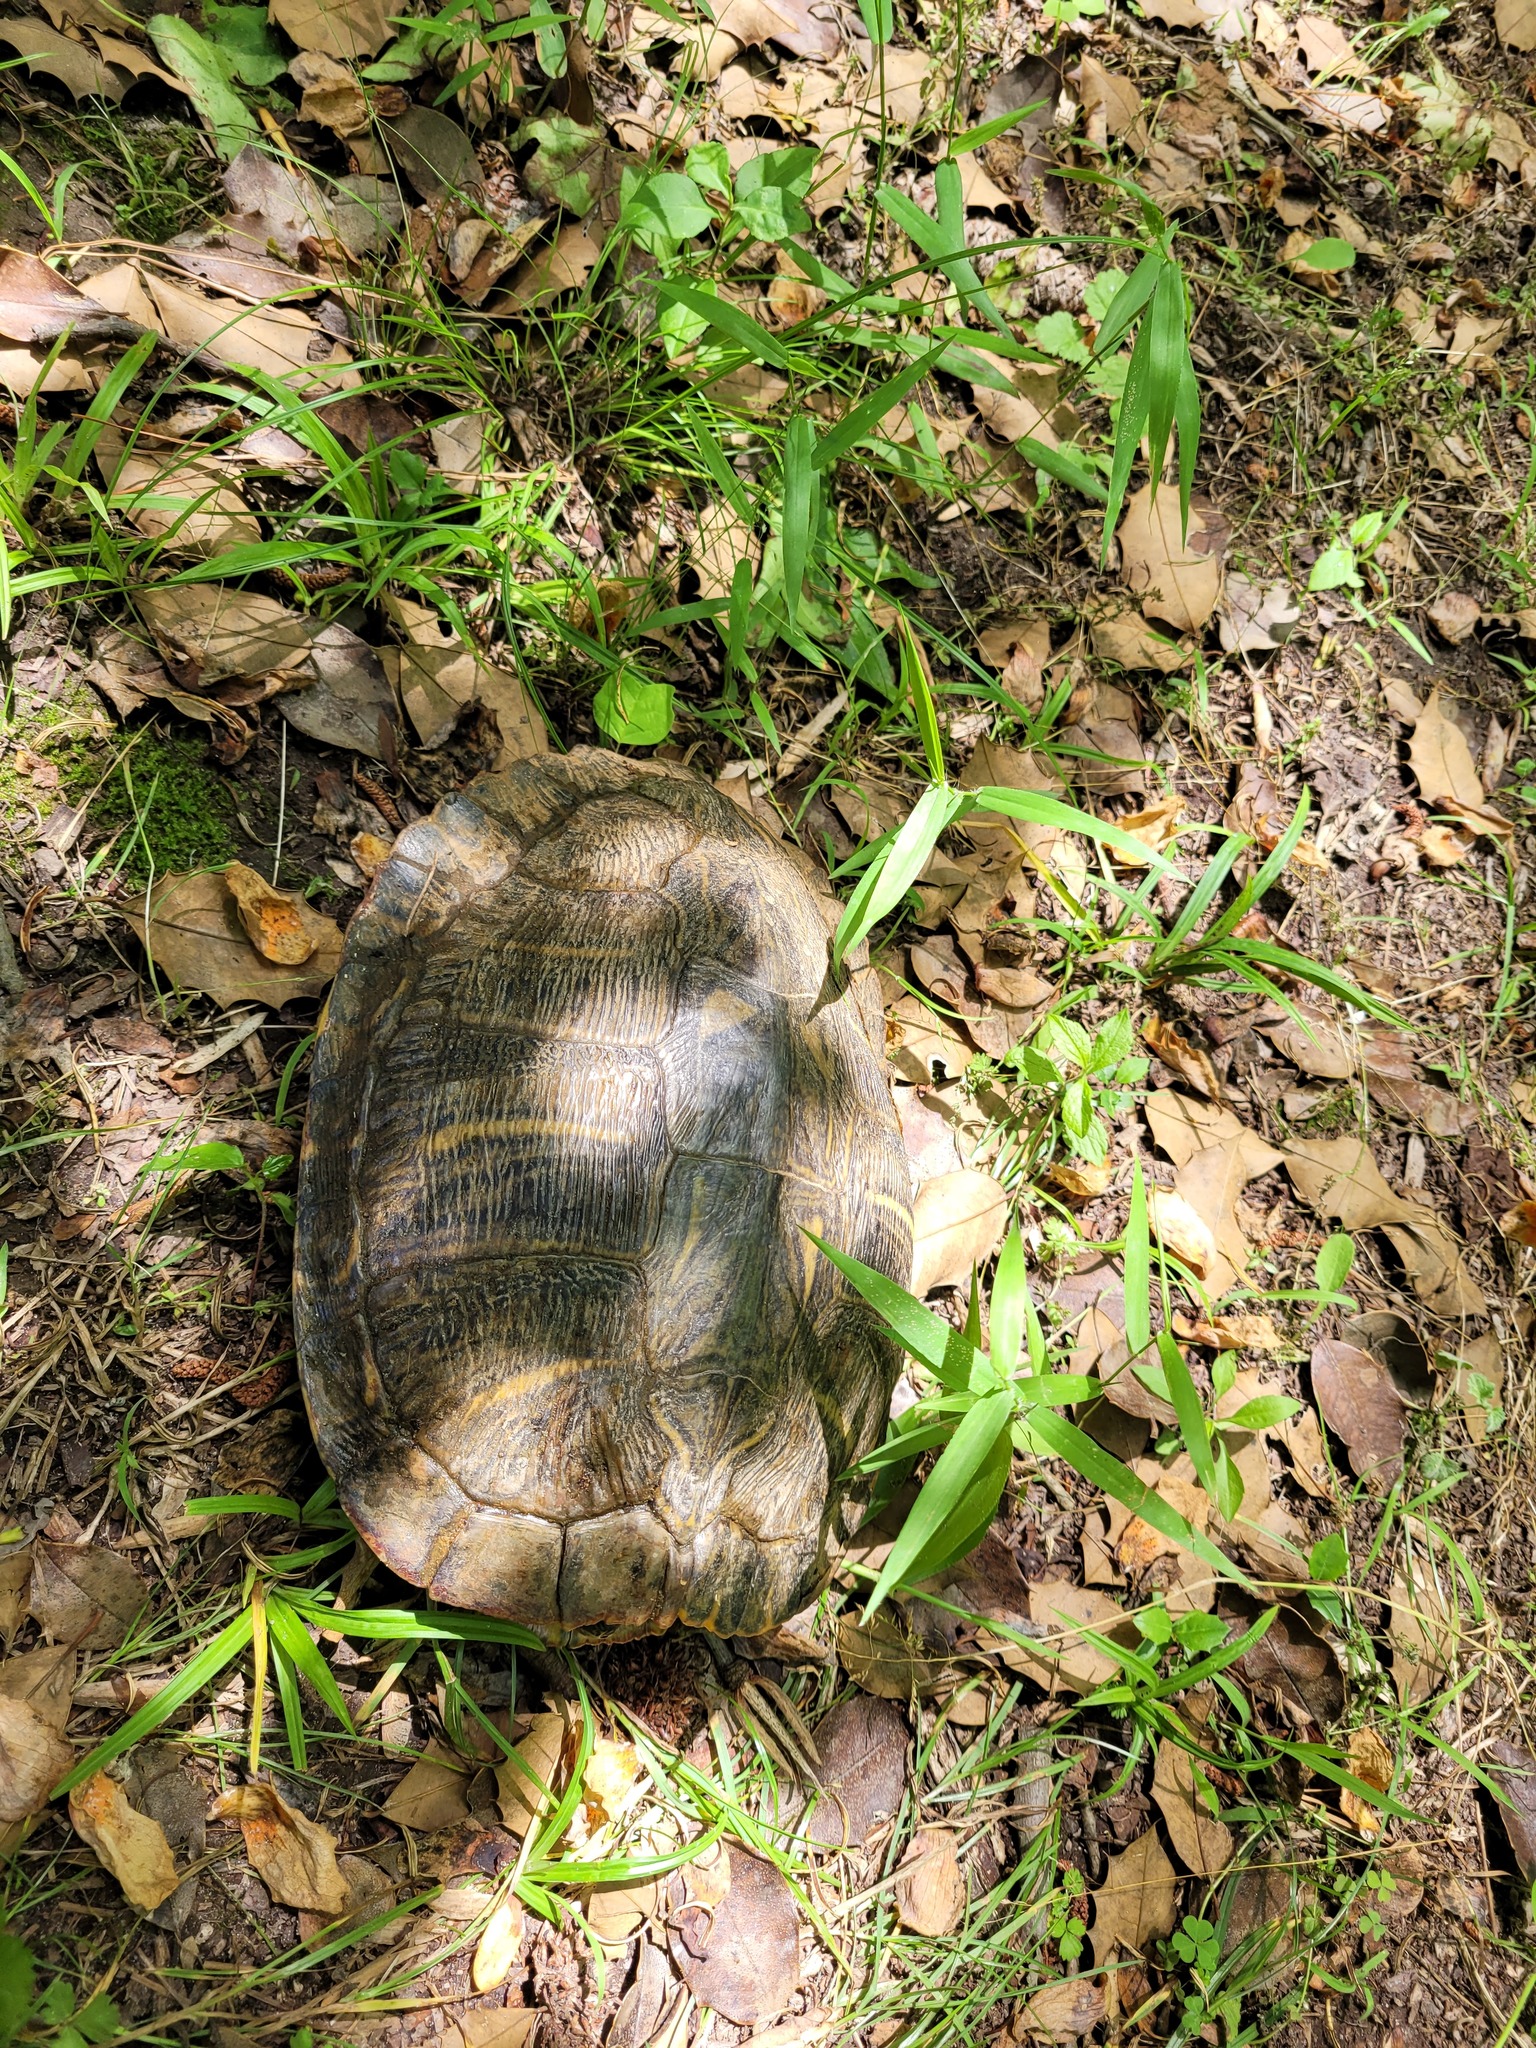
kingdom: Animalia
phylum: Chordata
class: Testudines
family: Emydidae
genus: Trachemys
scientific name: Trachemys scripta
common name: Slider
